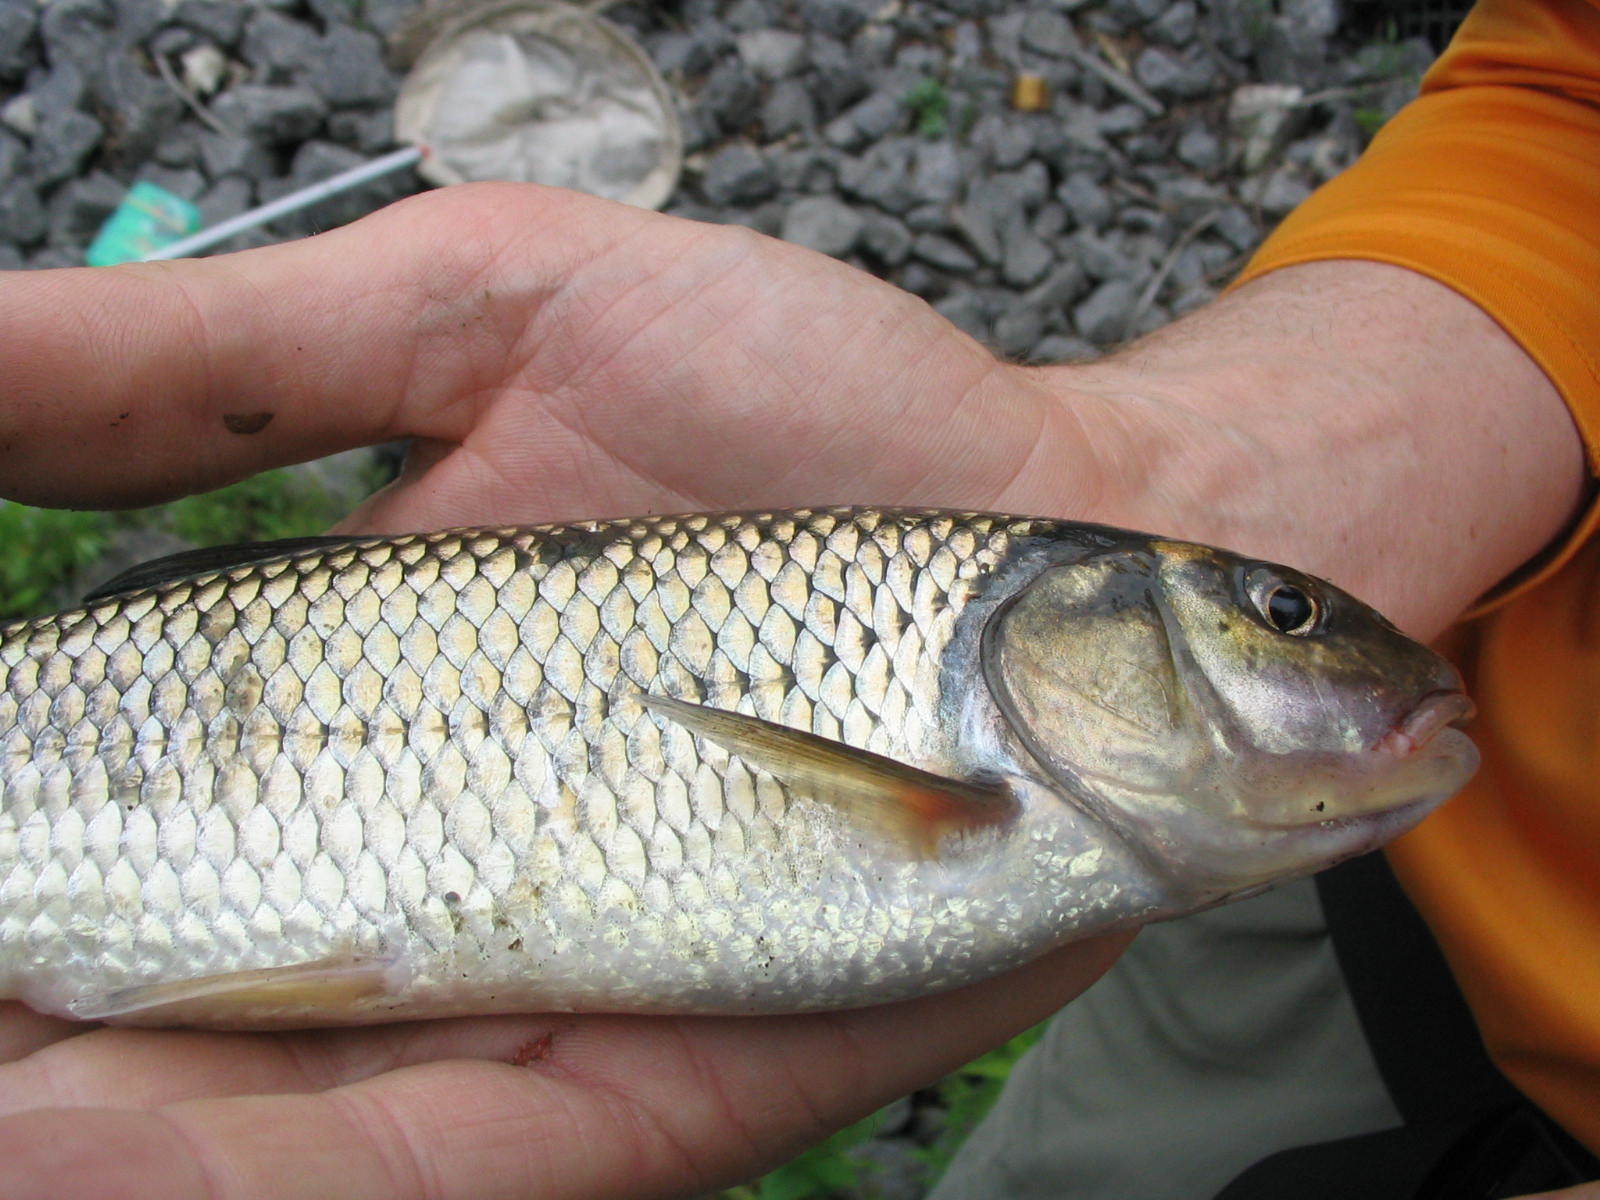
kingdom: Animalia
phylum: Chordata
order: Cypriniformes
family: Cyprinidae
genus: Semotilus
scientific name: Semotilus corporalis
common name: Fallfish
